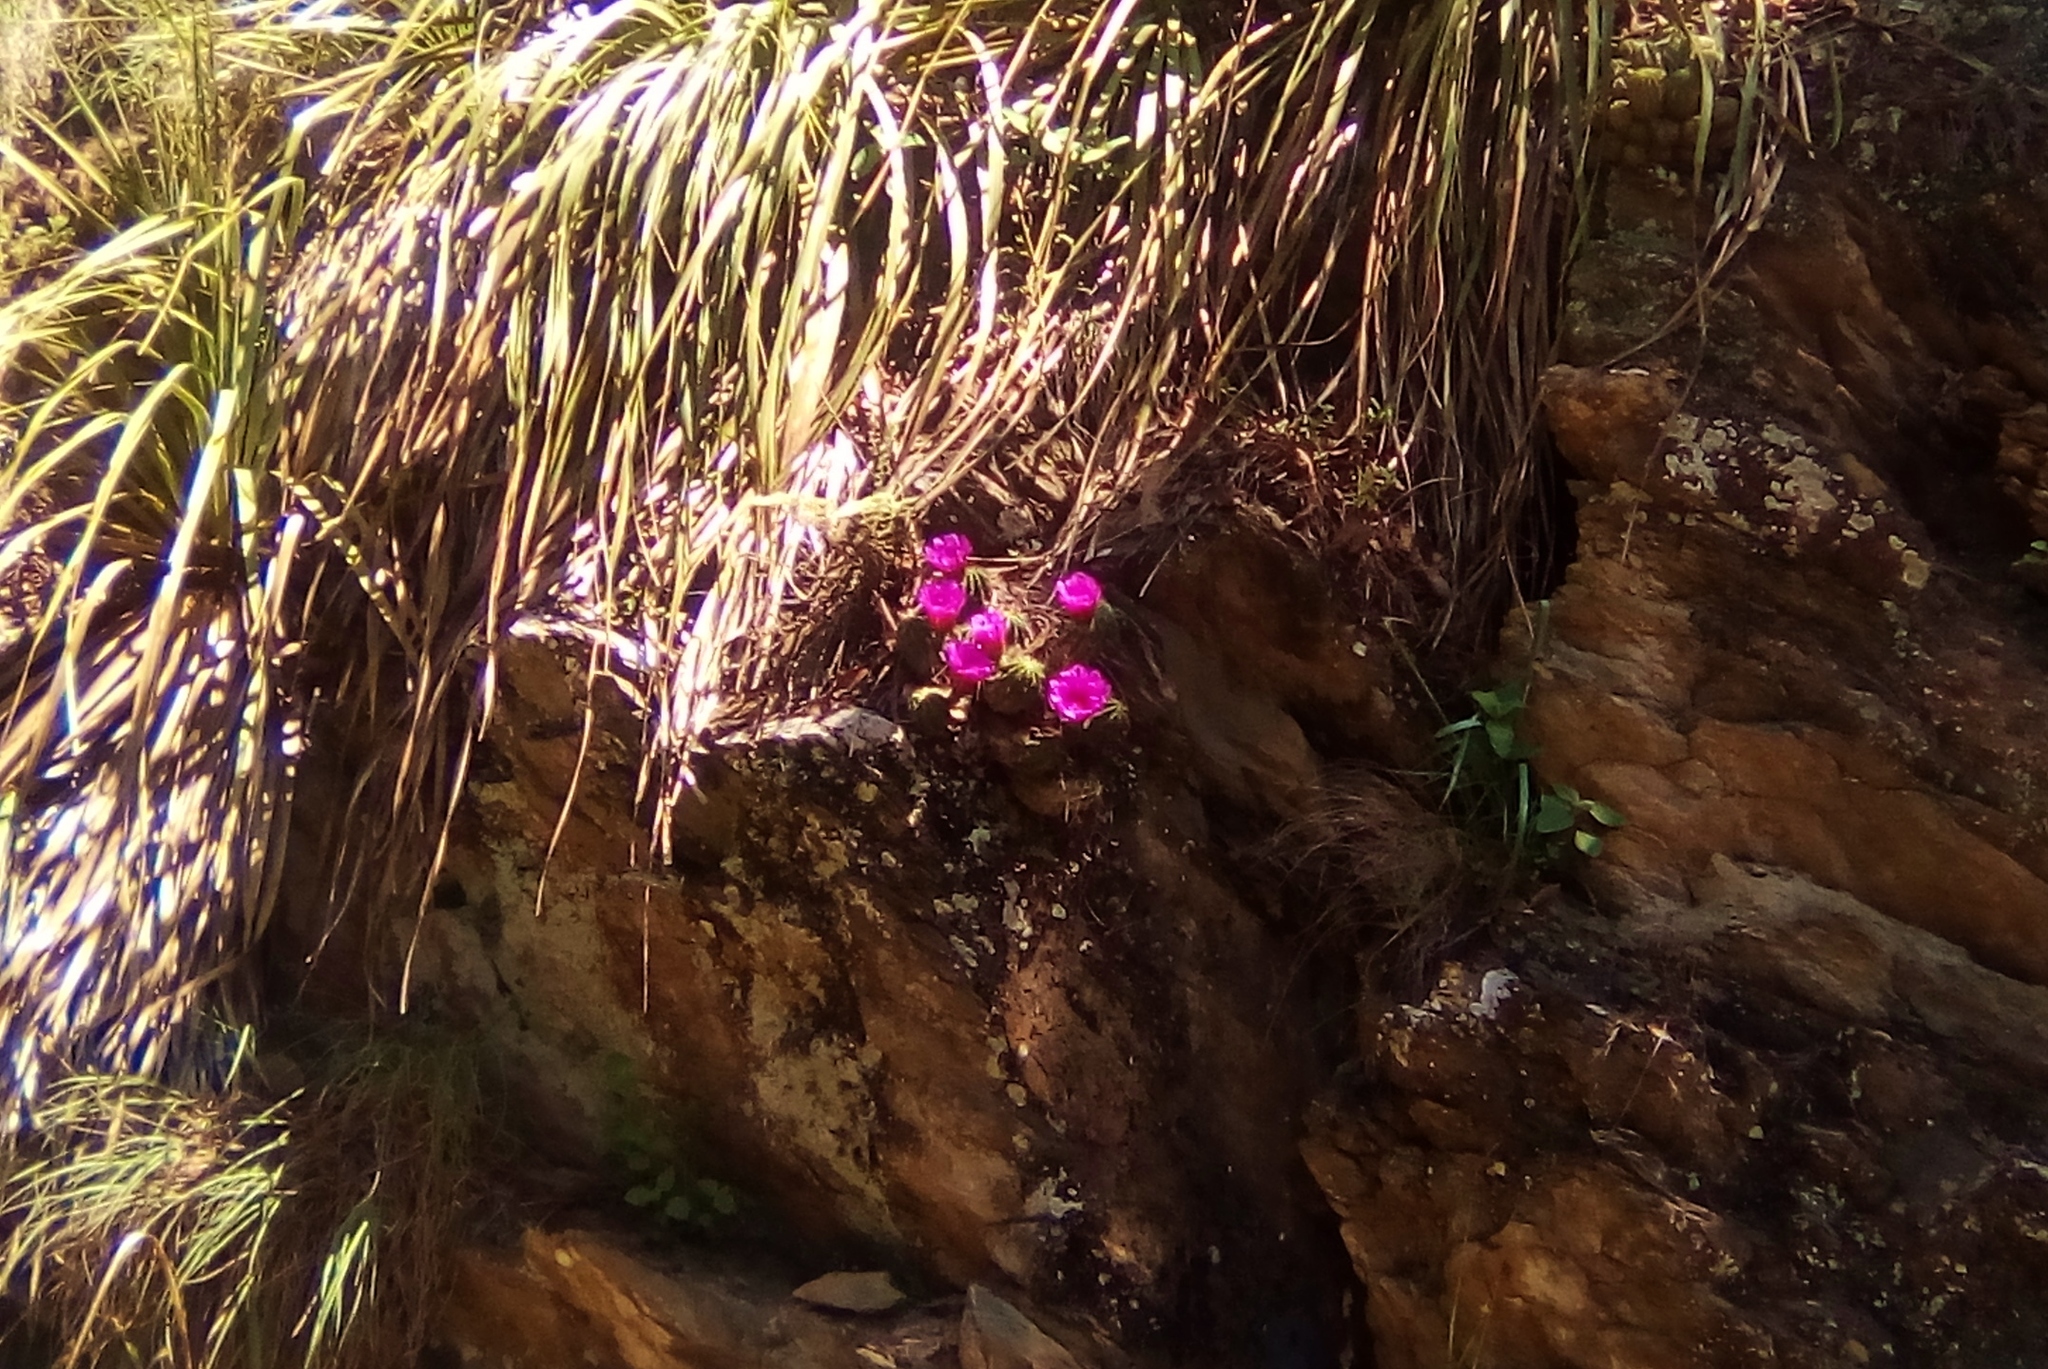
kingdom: Plantae
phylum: Tracheophyta
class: Magnoliopsida
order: Caryophyllales
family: Cactaceae
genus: Echinocereus
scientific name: Echinocereus viereckii
